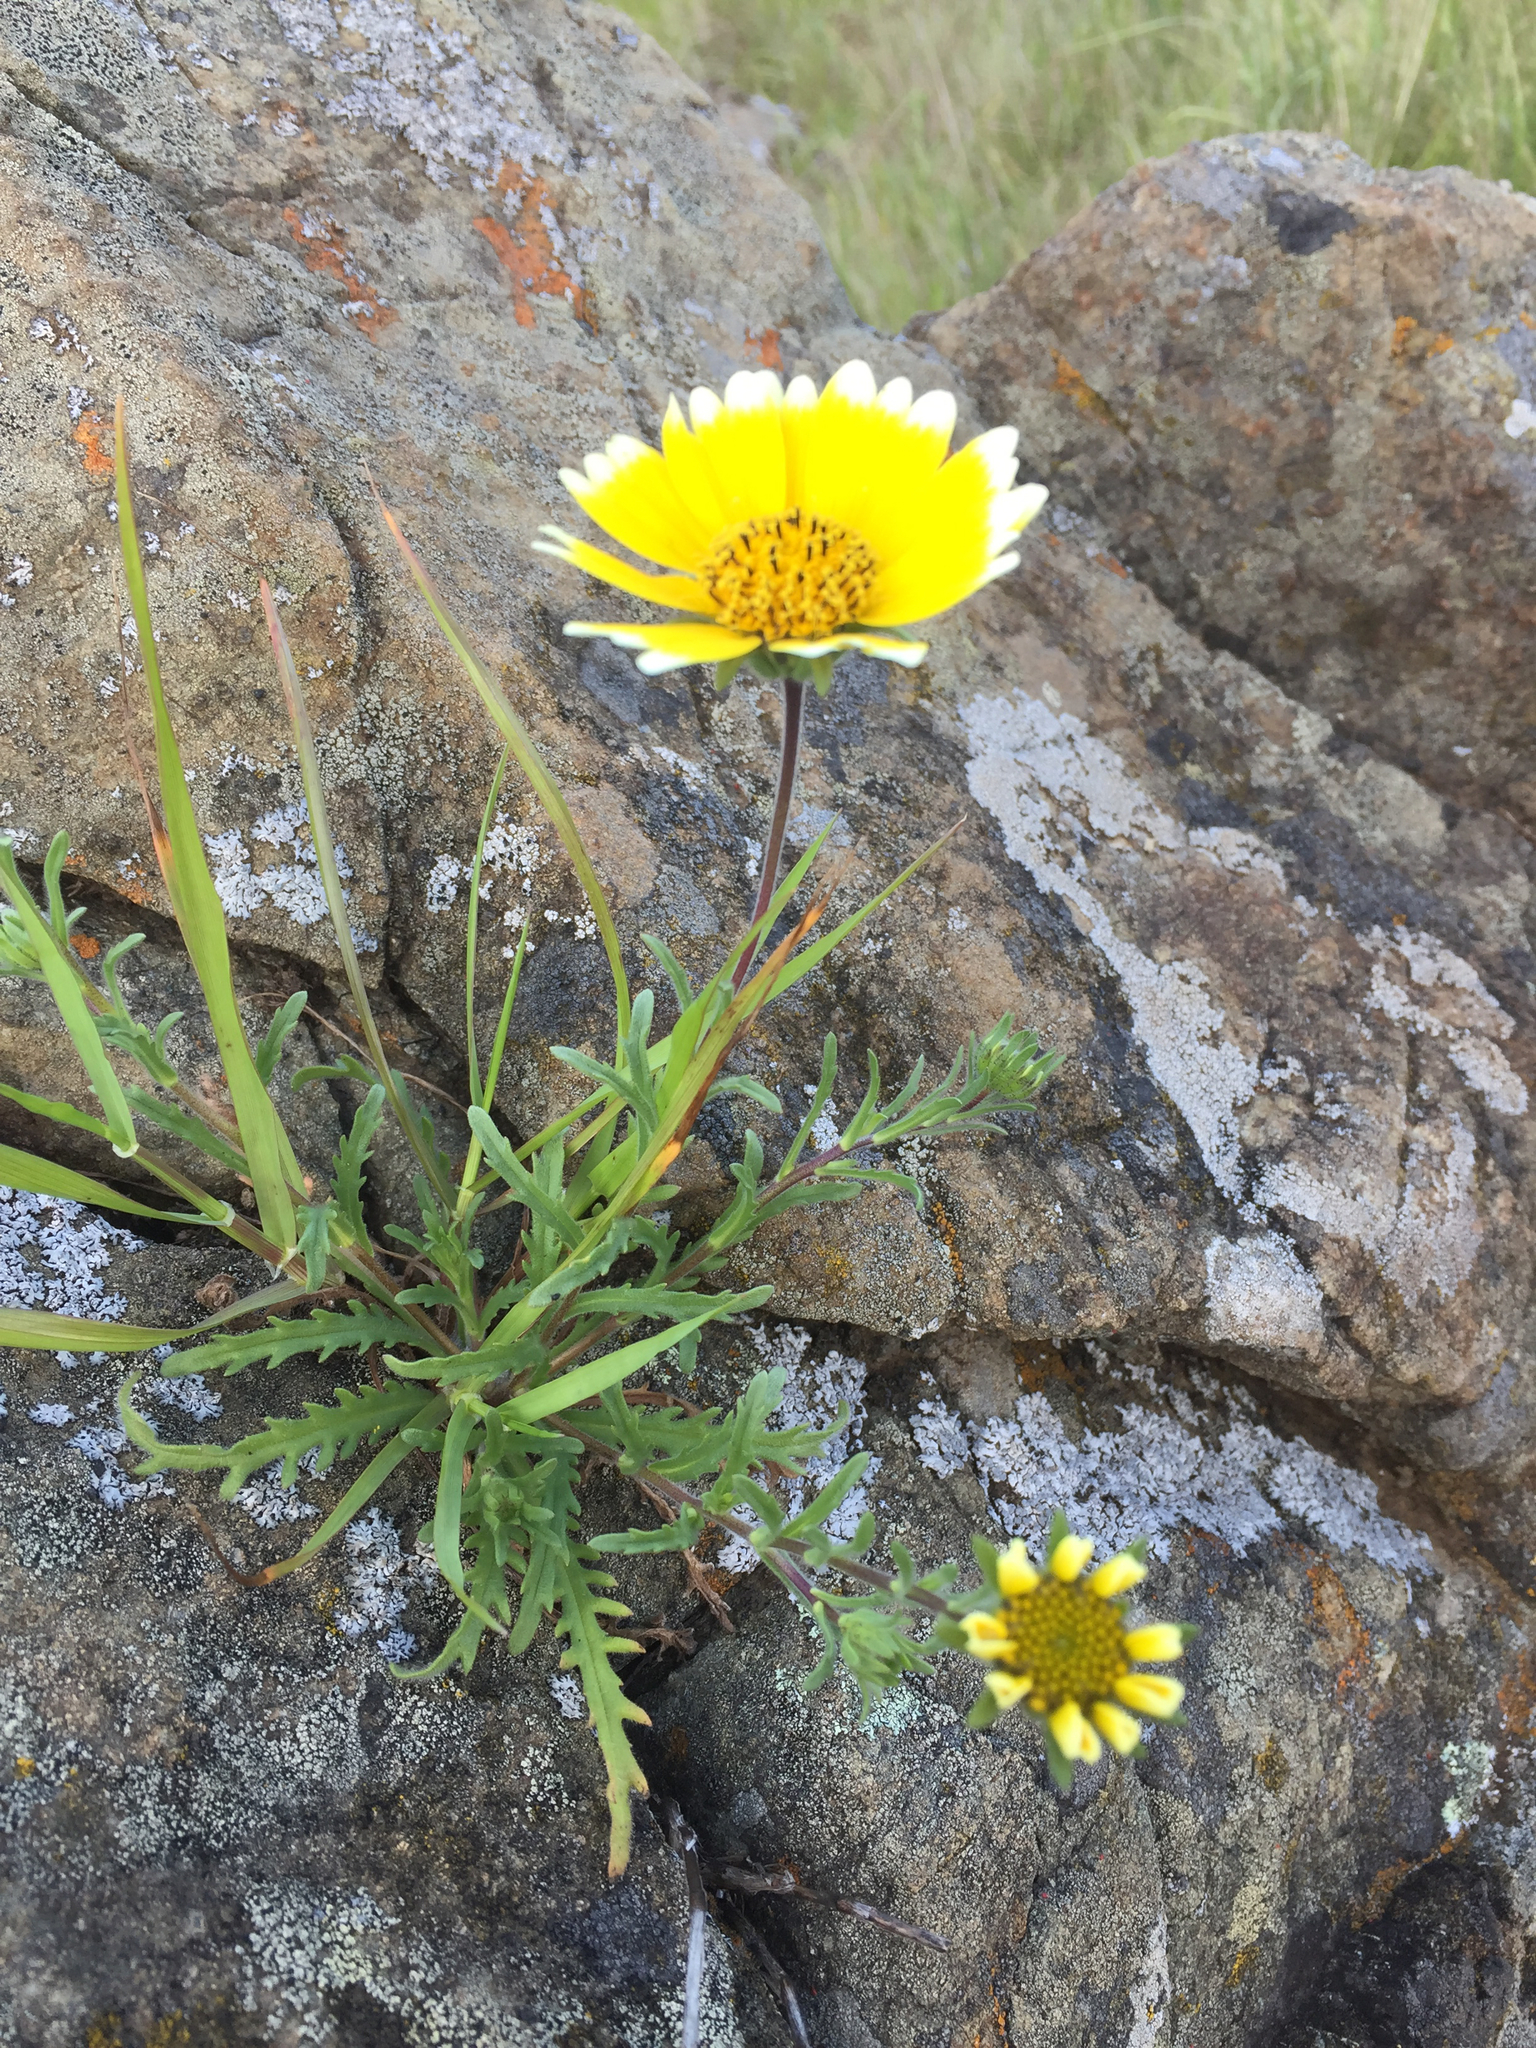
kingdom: Plantae
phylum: Tracheophyta
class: Magnoliopsida
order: Asterales
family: Asteraceae
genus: Layia
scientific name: Layia platyglossa
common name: Tidy-tips
